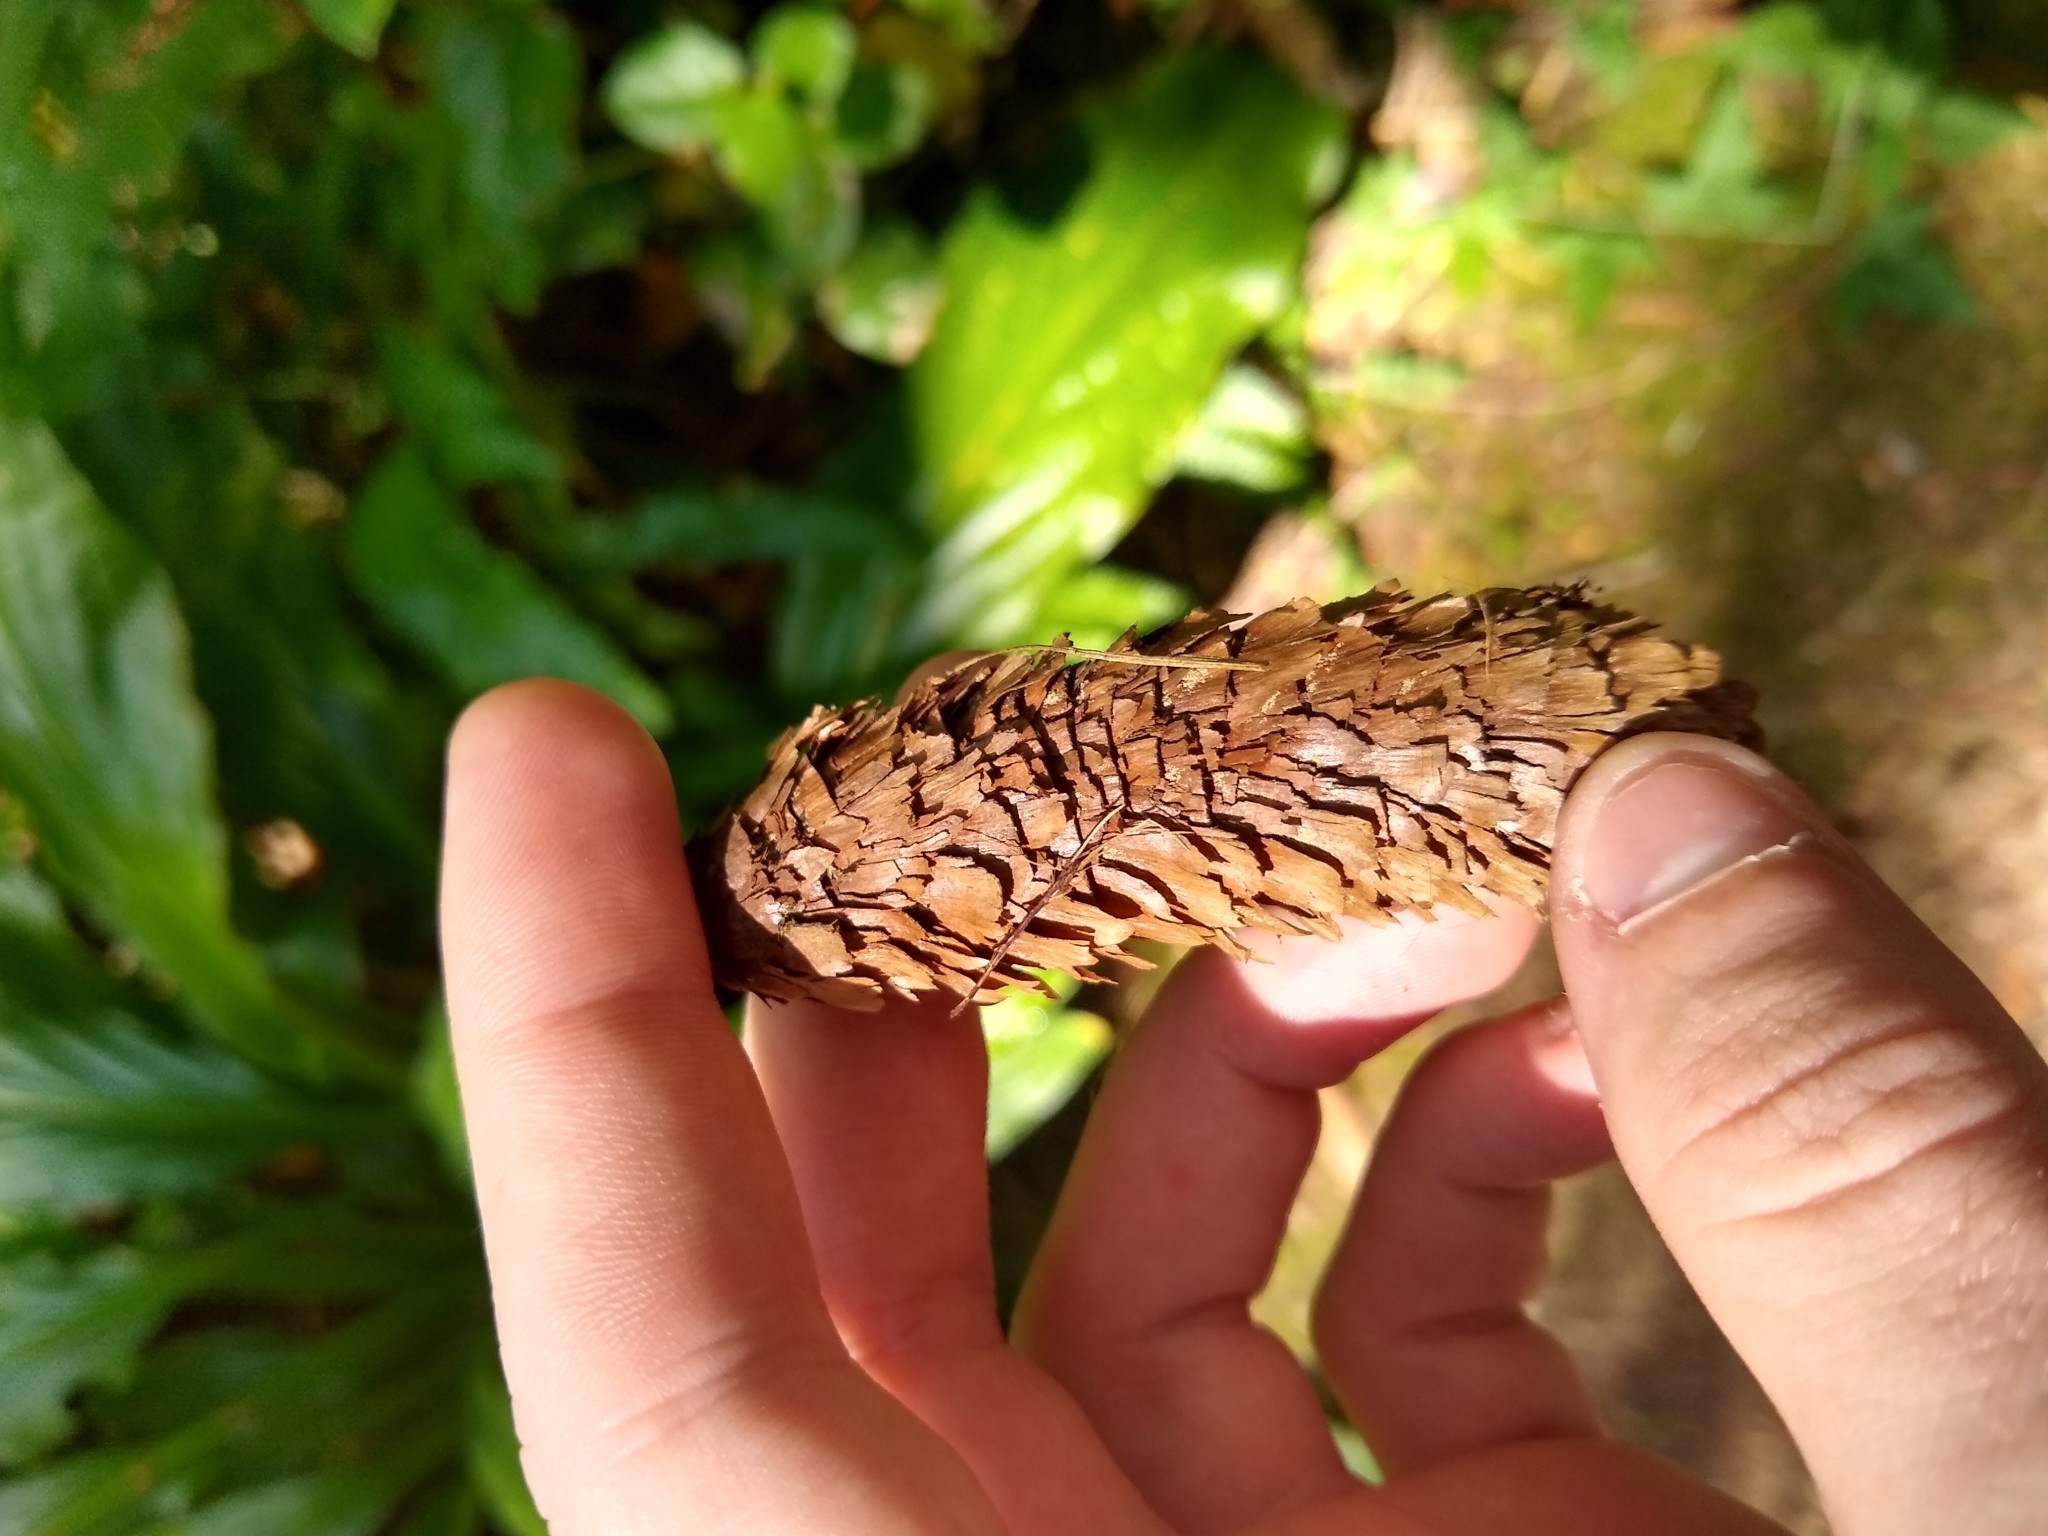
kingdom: Plantae
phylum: Tracheophyta
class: Pinopsida
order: Pinales
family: Pinaceae
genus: Picea
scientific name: Picea sitchensis
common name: Sitka spruce
